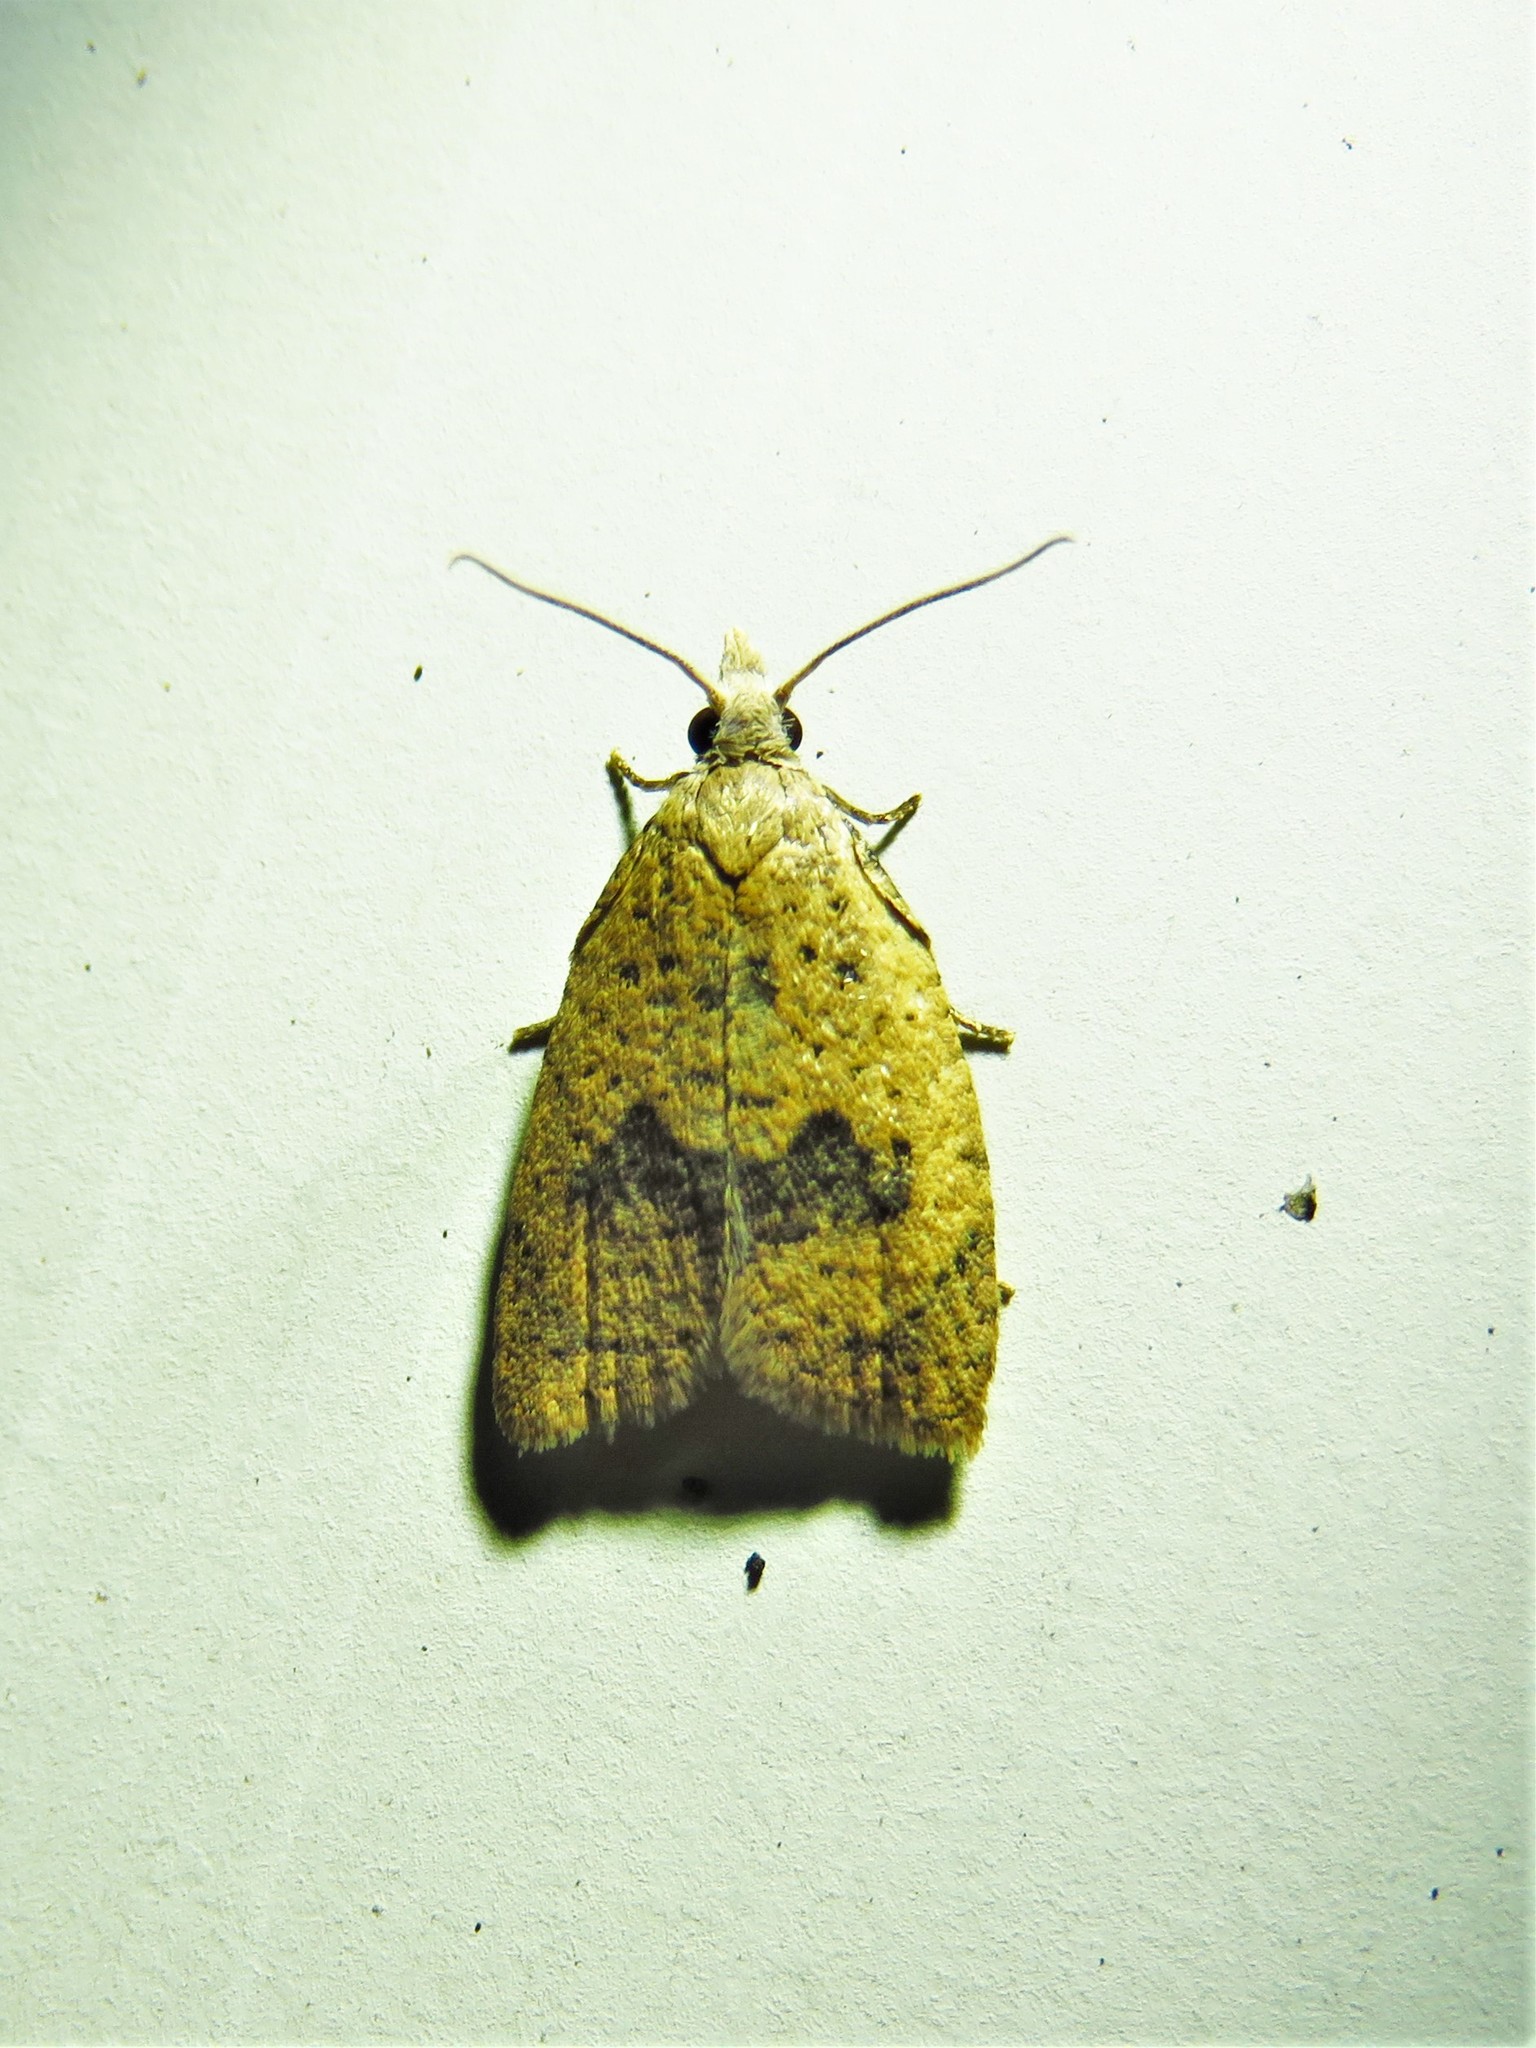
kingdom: Animalia
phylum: Arthropoda
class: Insecta
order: Lepidoptera
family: Tortricidae
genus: Sparganothoides
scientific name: Sparganothoides lentiginosana
